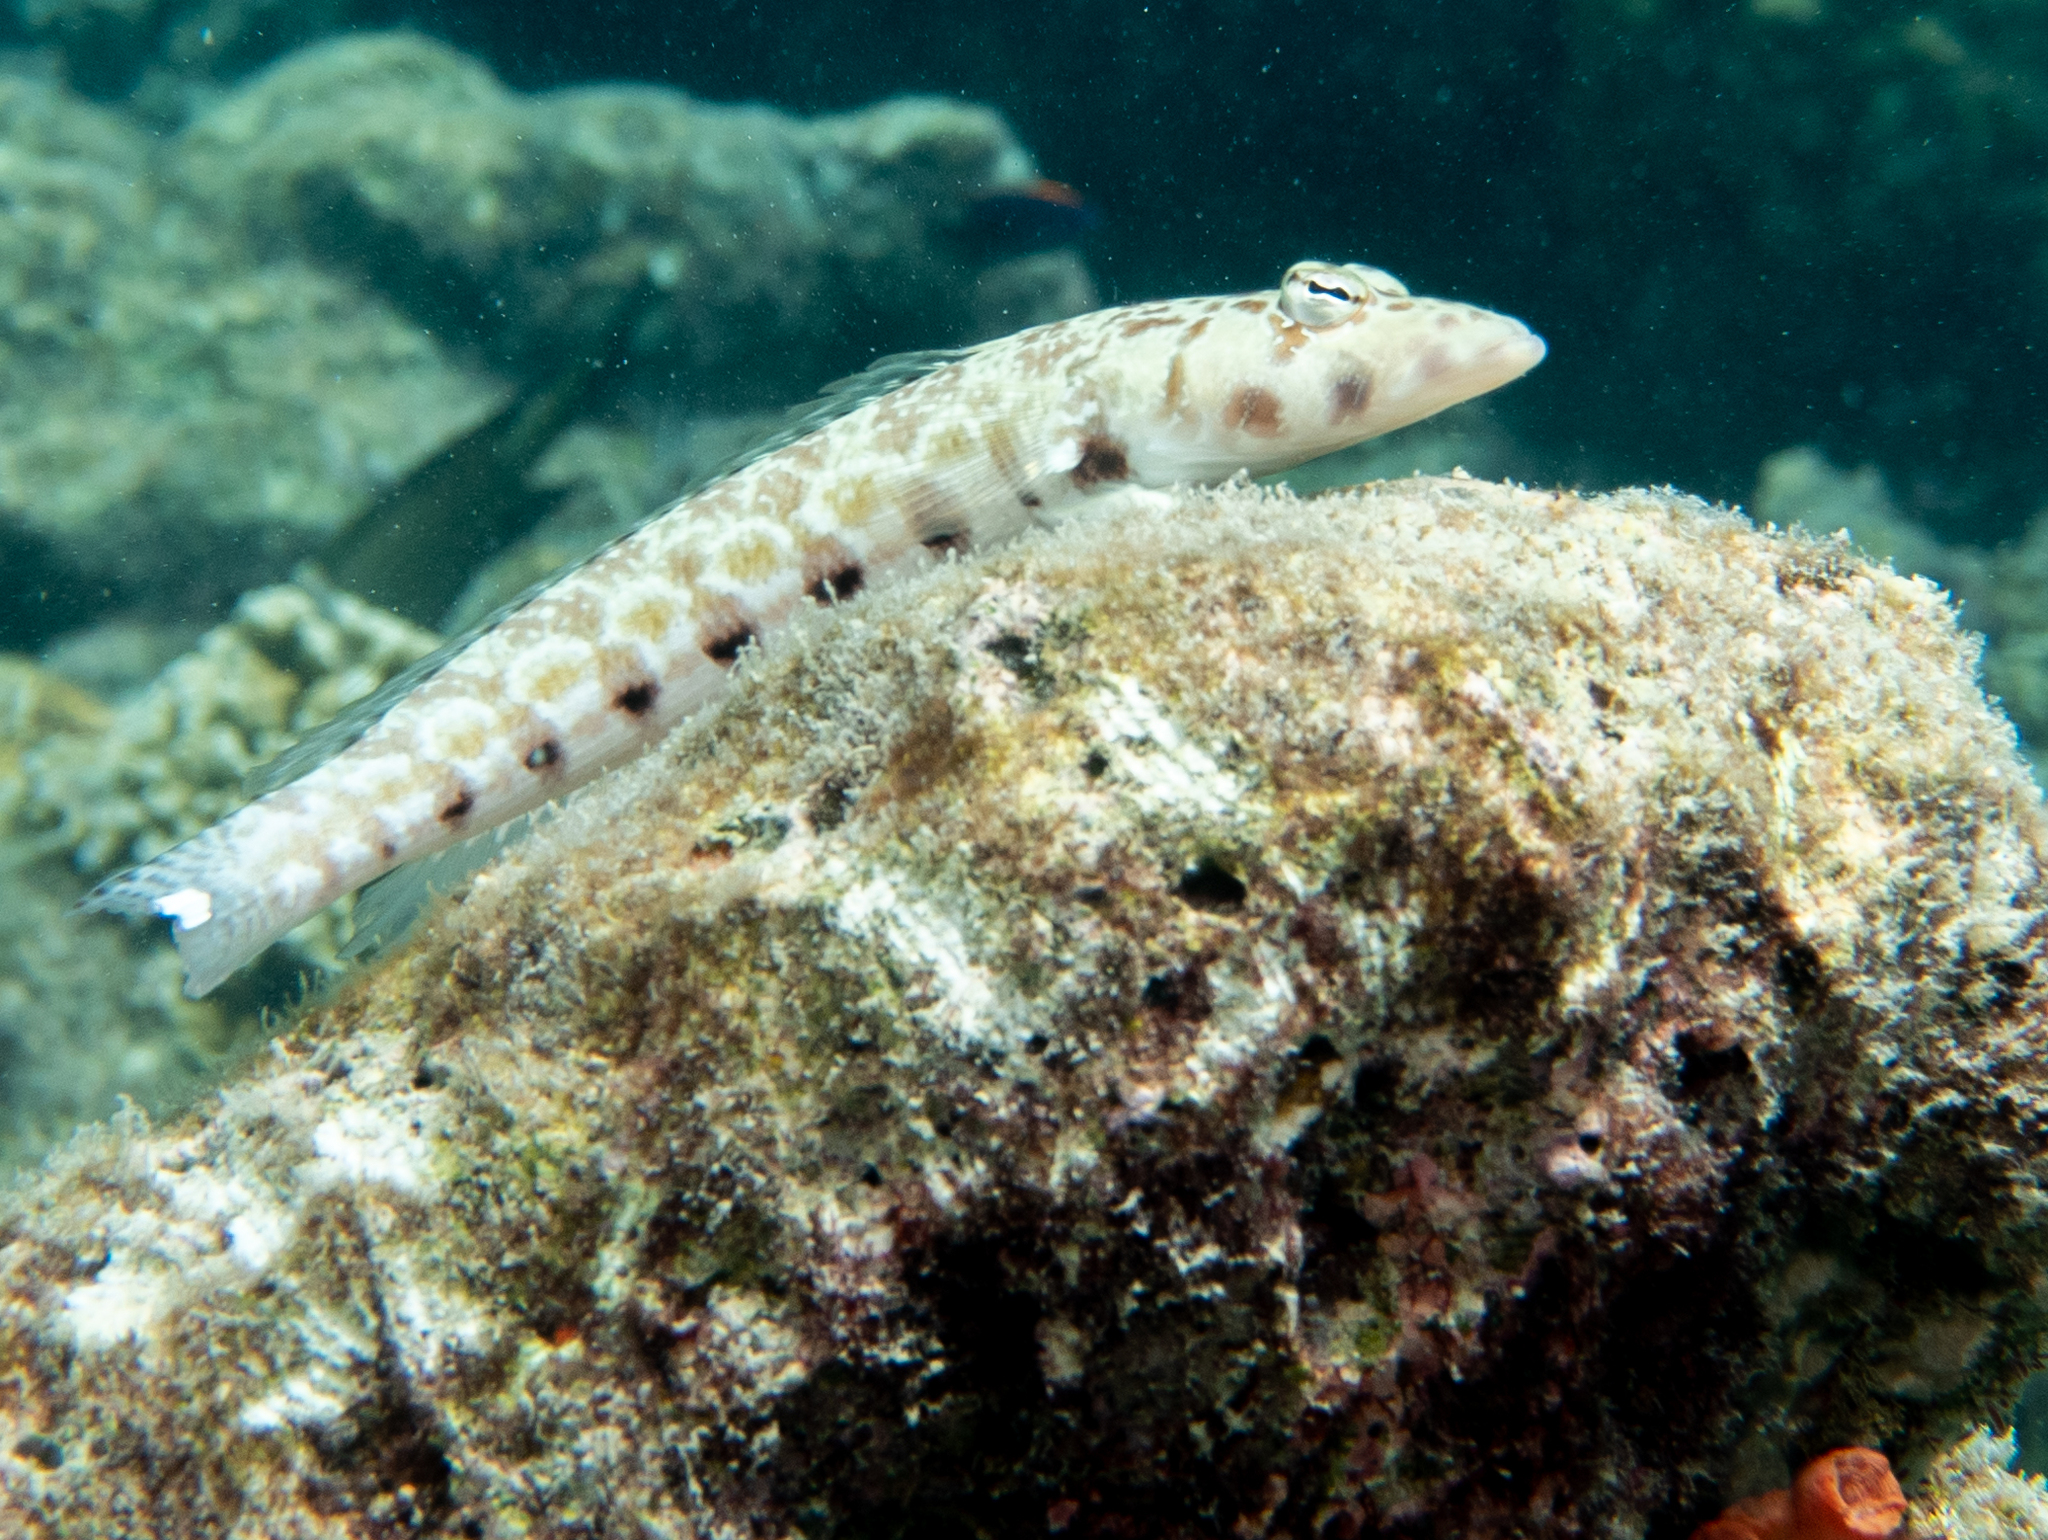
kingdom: Animalia
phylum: Chordata
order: Perciformes
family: Pinguipedidae
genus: Parapercis
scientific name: Parapercis millepunctata
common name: Black-dotted sandperch
